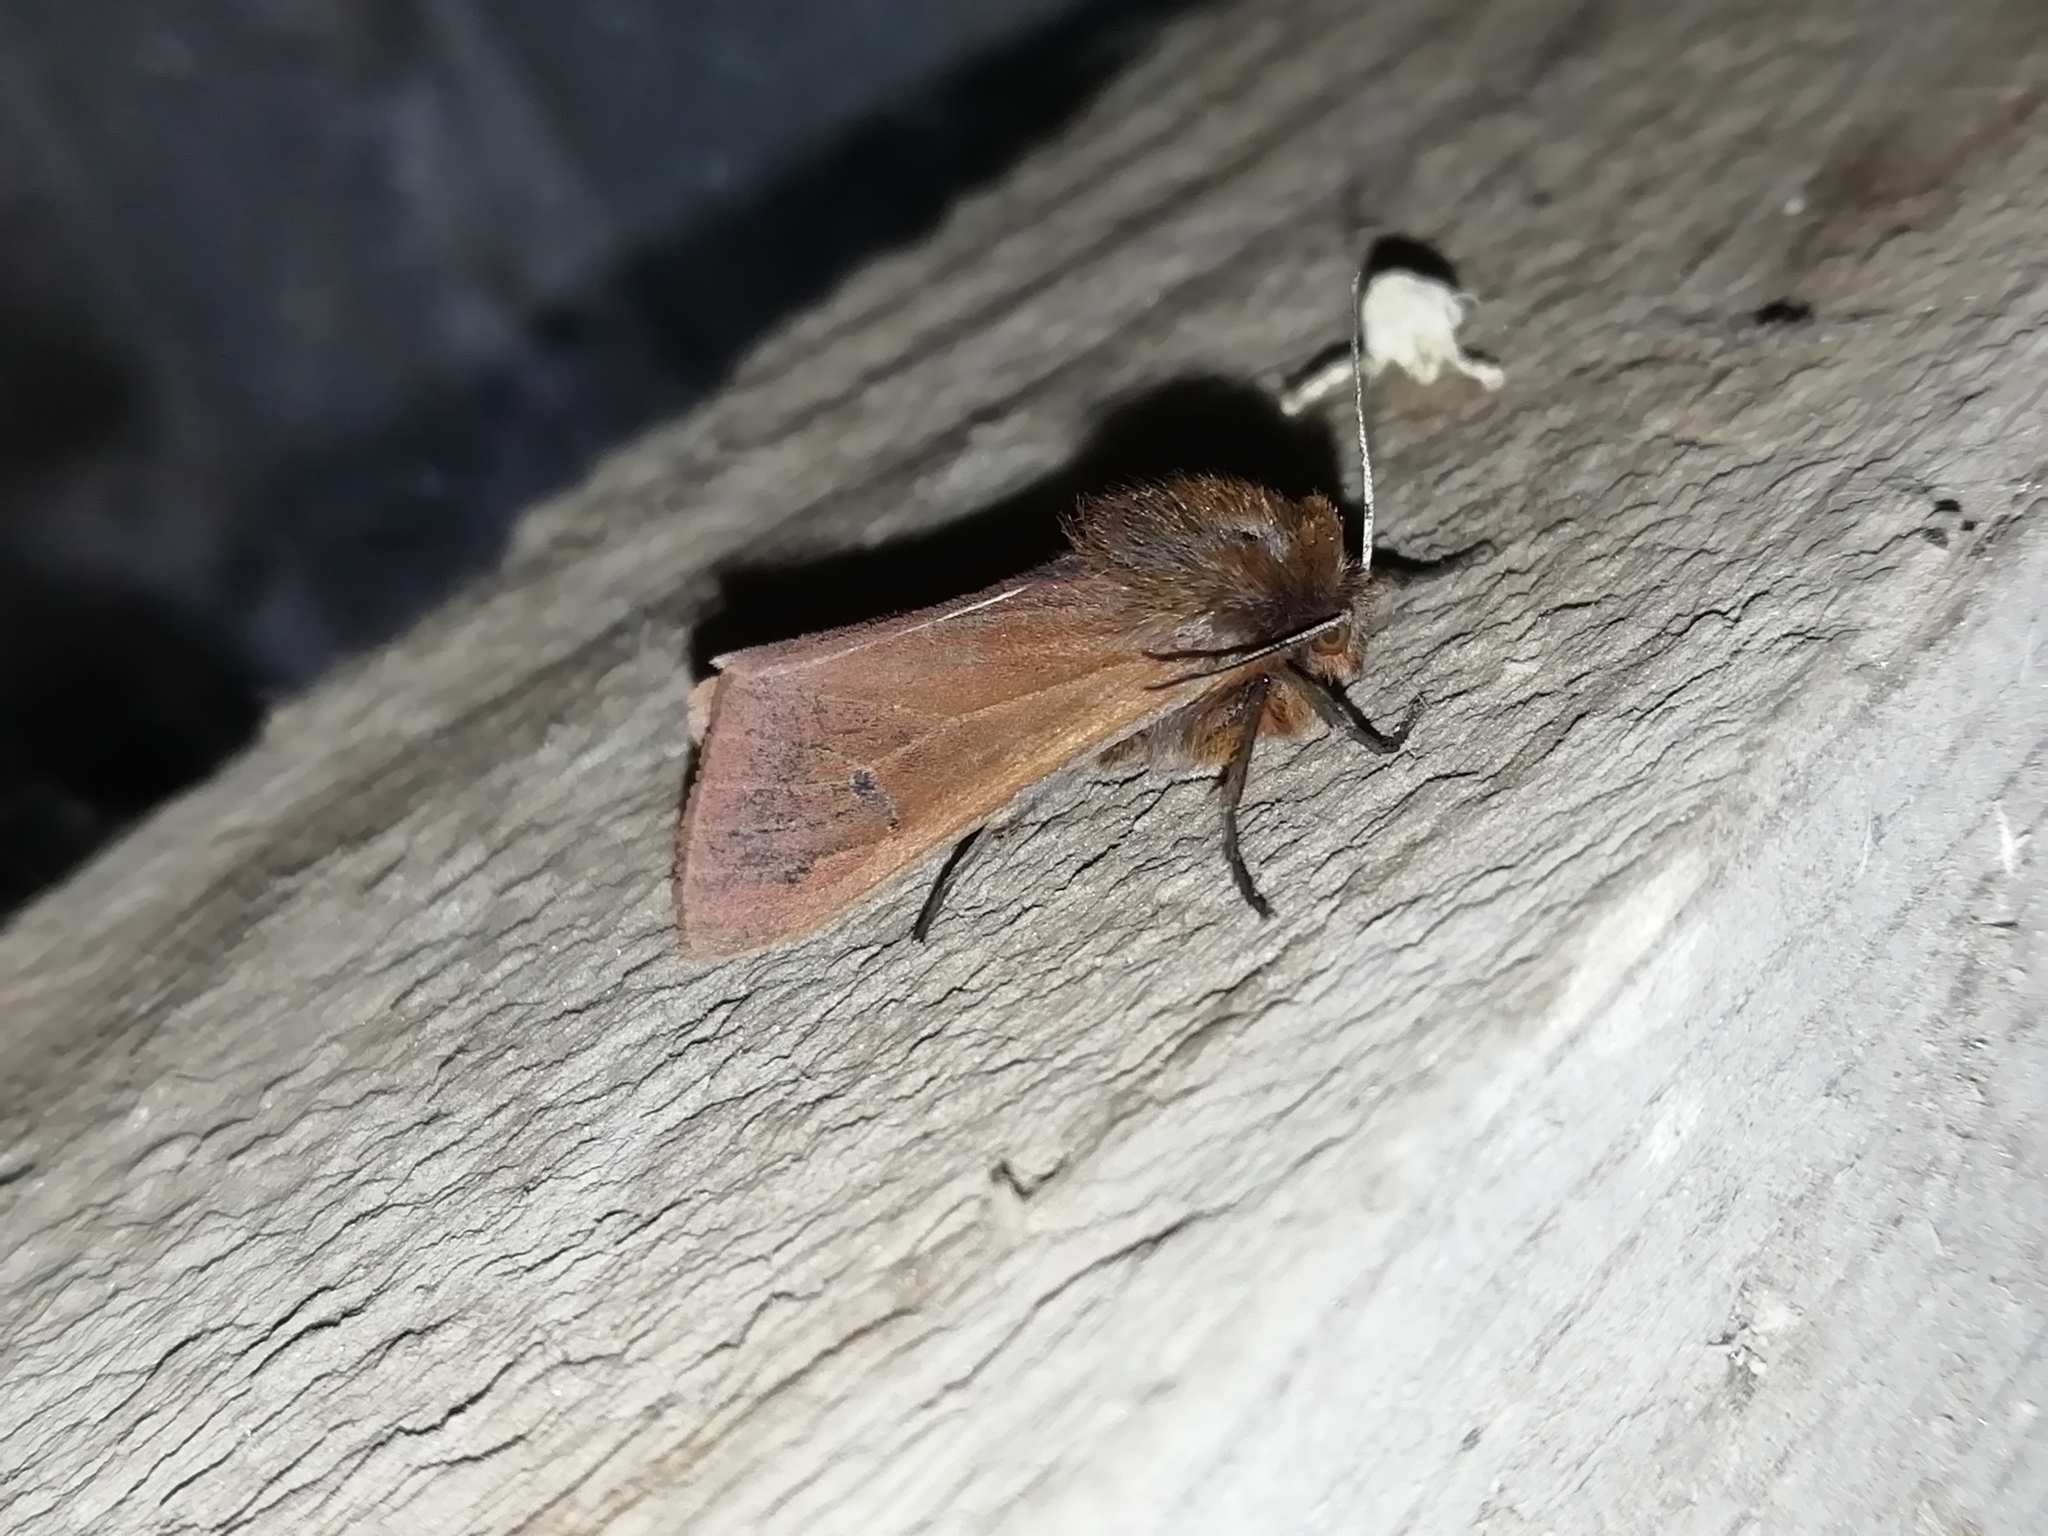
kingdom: Animalia
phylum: Arthropoda
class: Insecta
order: Lepidoptera
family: Erebidae
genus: Phragmatobia
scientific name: Phragmatobia fuliginosa
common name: Ruby tiger
